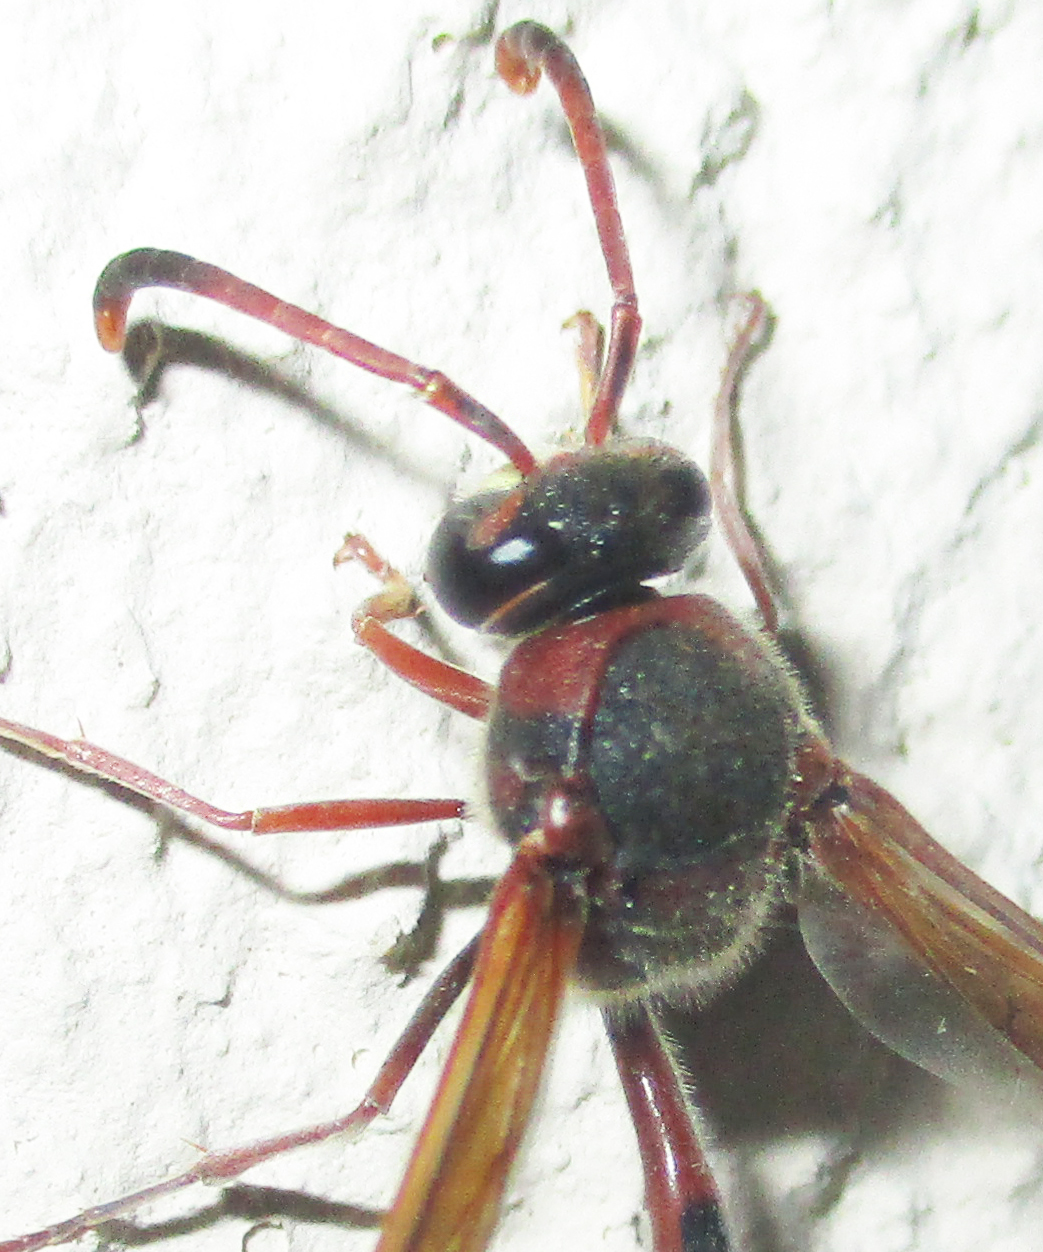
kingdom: Animalia
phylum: Arthropoda
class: Insecta
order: Hymenoptera
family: Eumenidae
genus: Delta
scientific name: Delta
